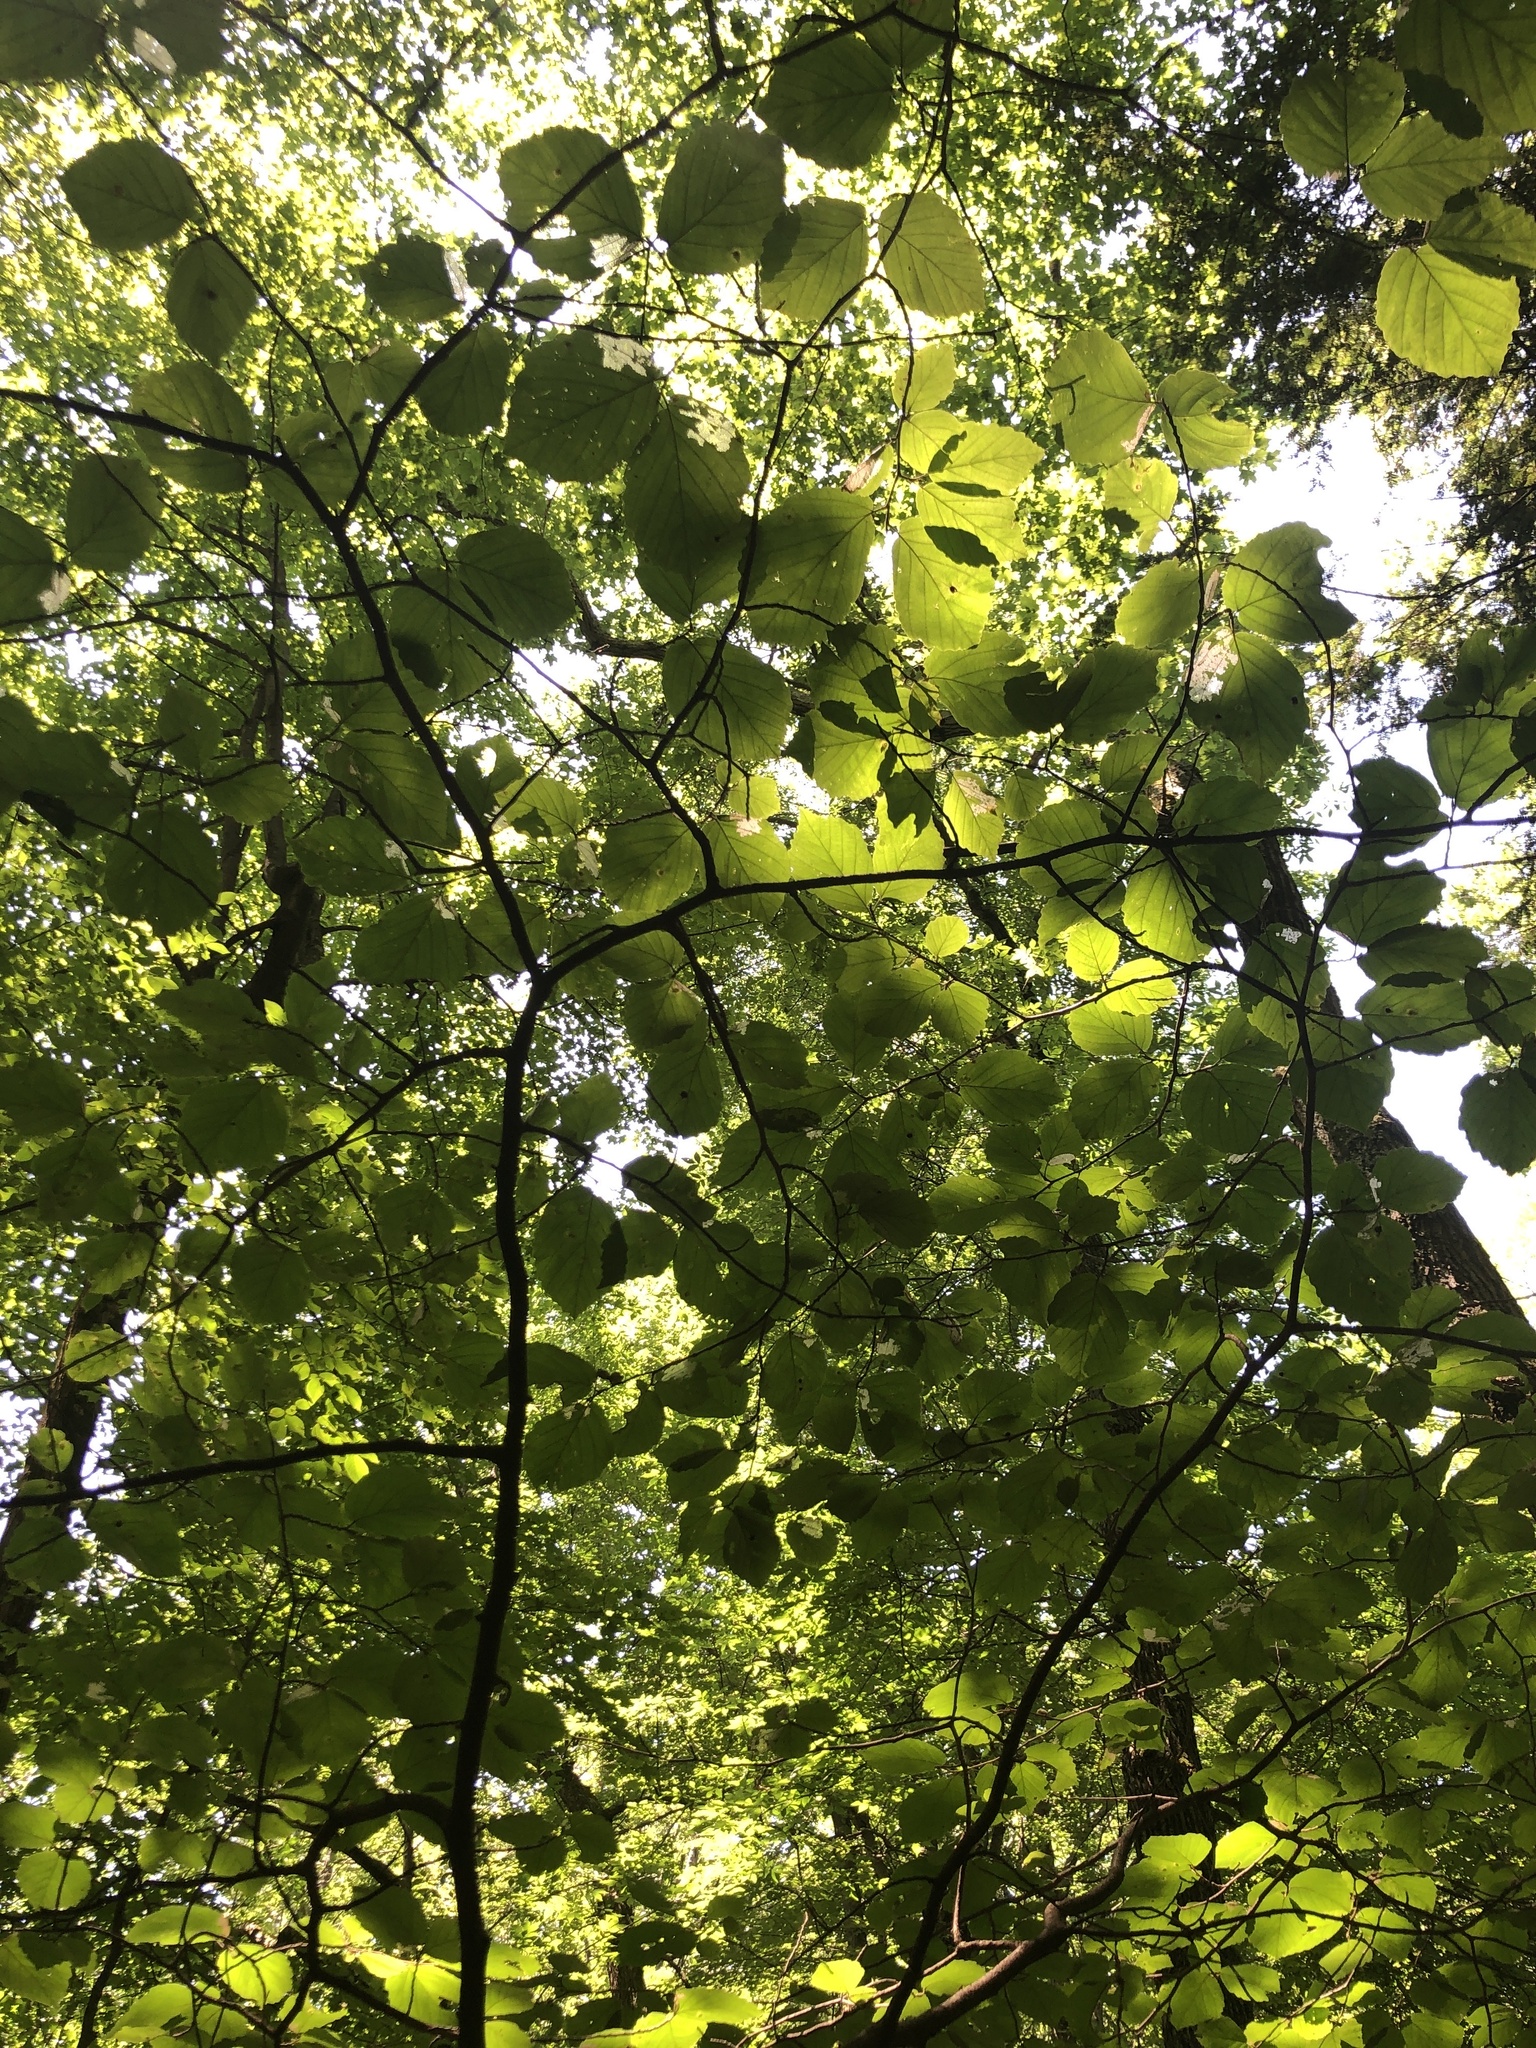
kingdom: Plantae
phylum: Tracheophyta
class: Magnoliopsida
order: Saxifragales
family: Hamamelidaceae
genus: Hamamelis
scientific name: Hamamelis virginiana
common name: Witch-hazel
